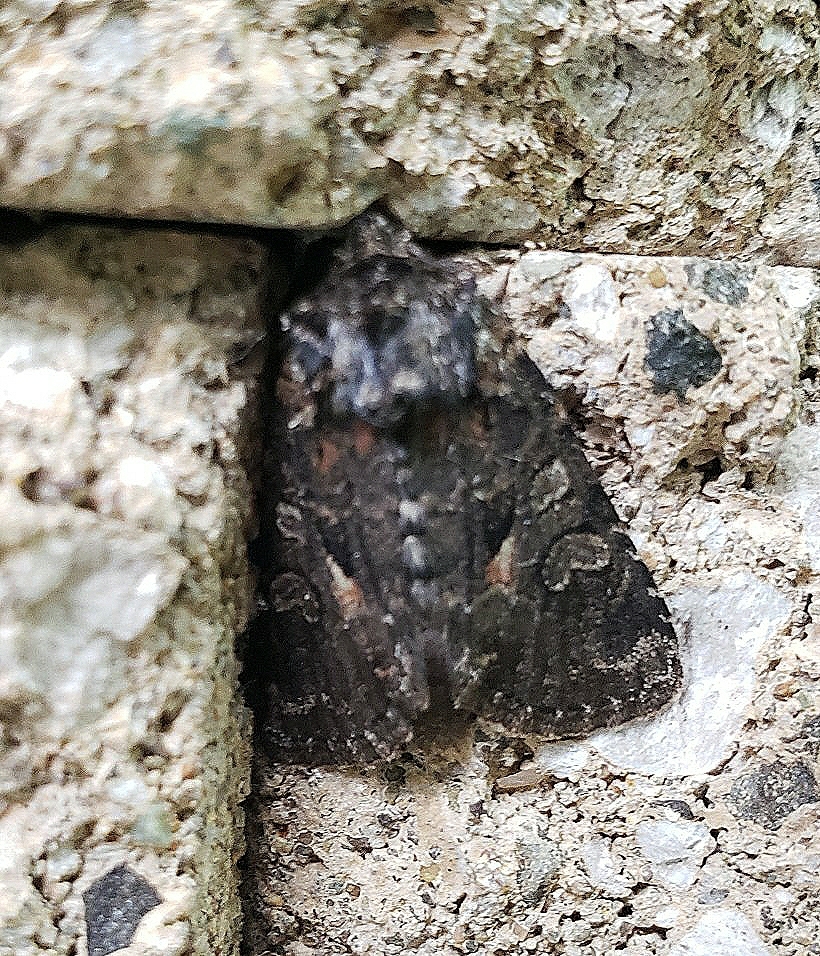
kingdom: Animalia
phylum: Arthropoda
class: Insecta
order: Lepidoptera
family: Noctuidae
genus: Orthodes
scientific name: Orthodes detracta
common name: Disparaged arches moth
